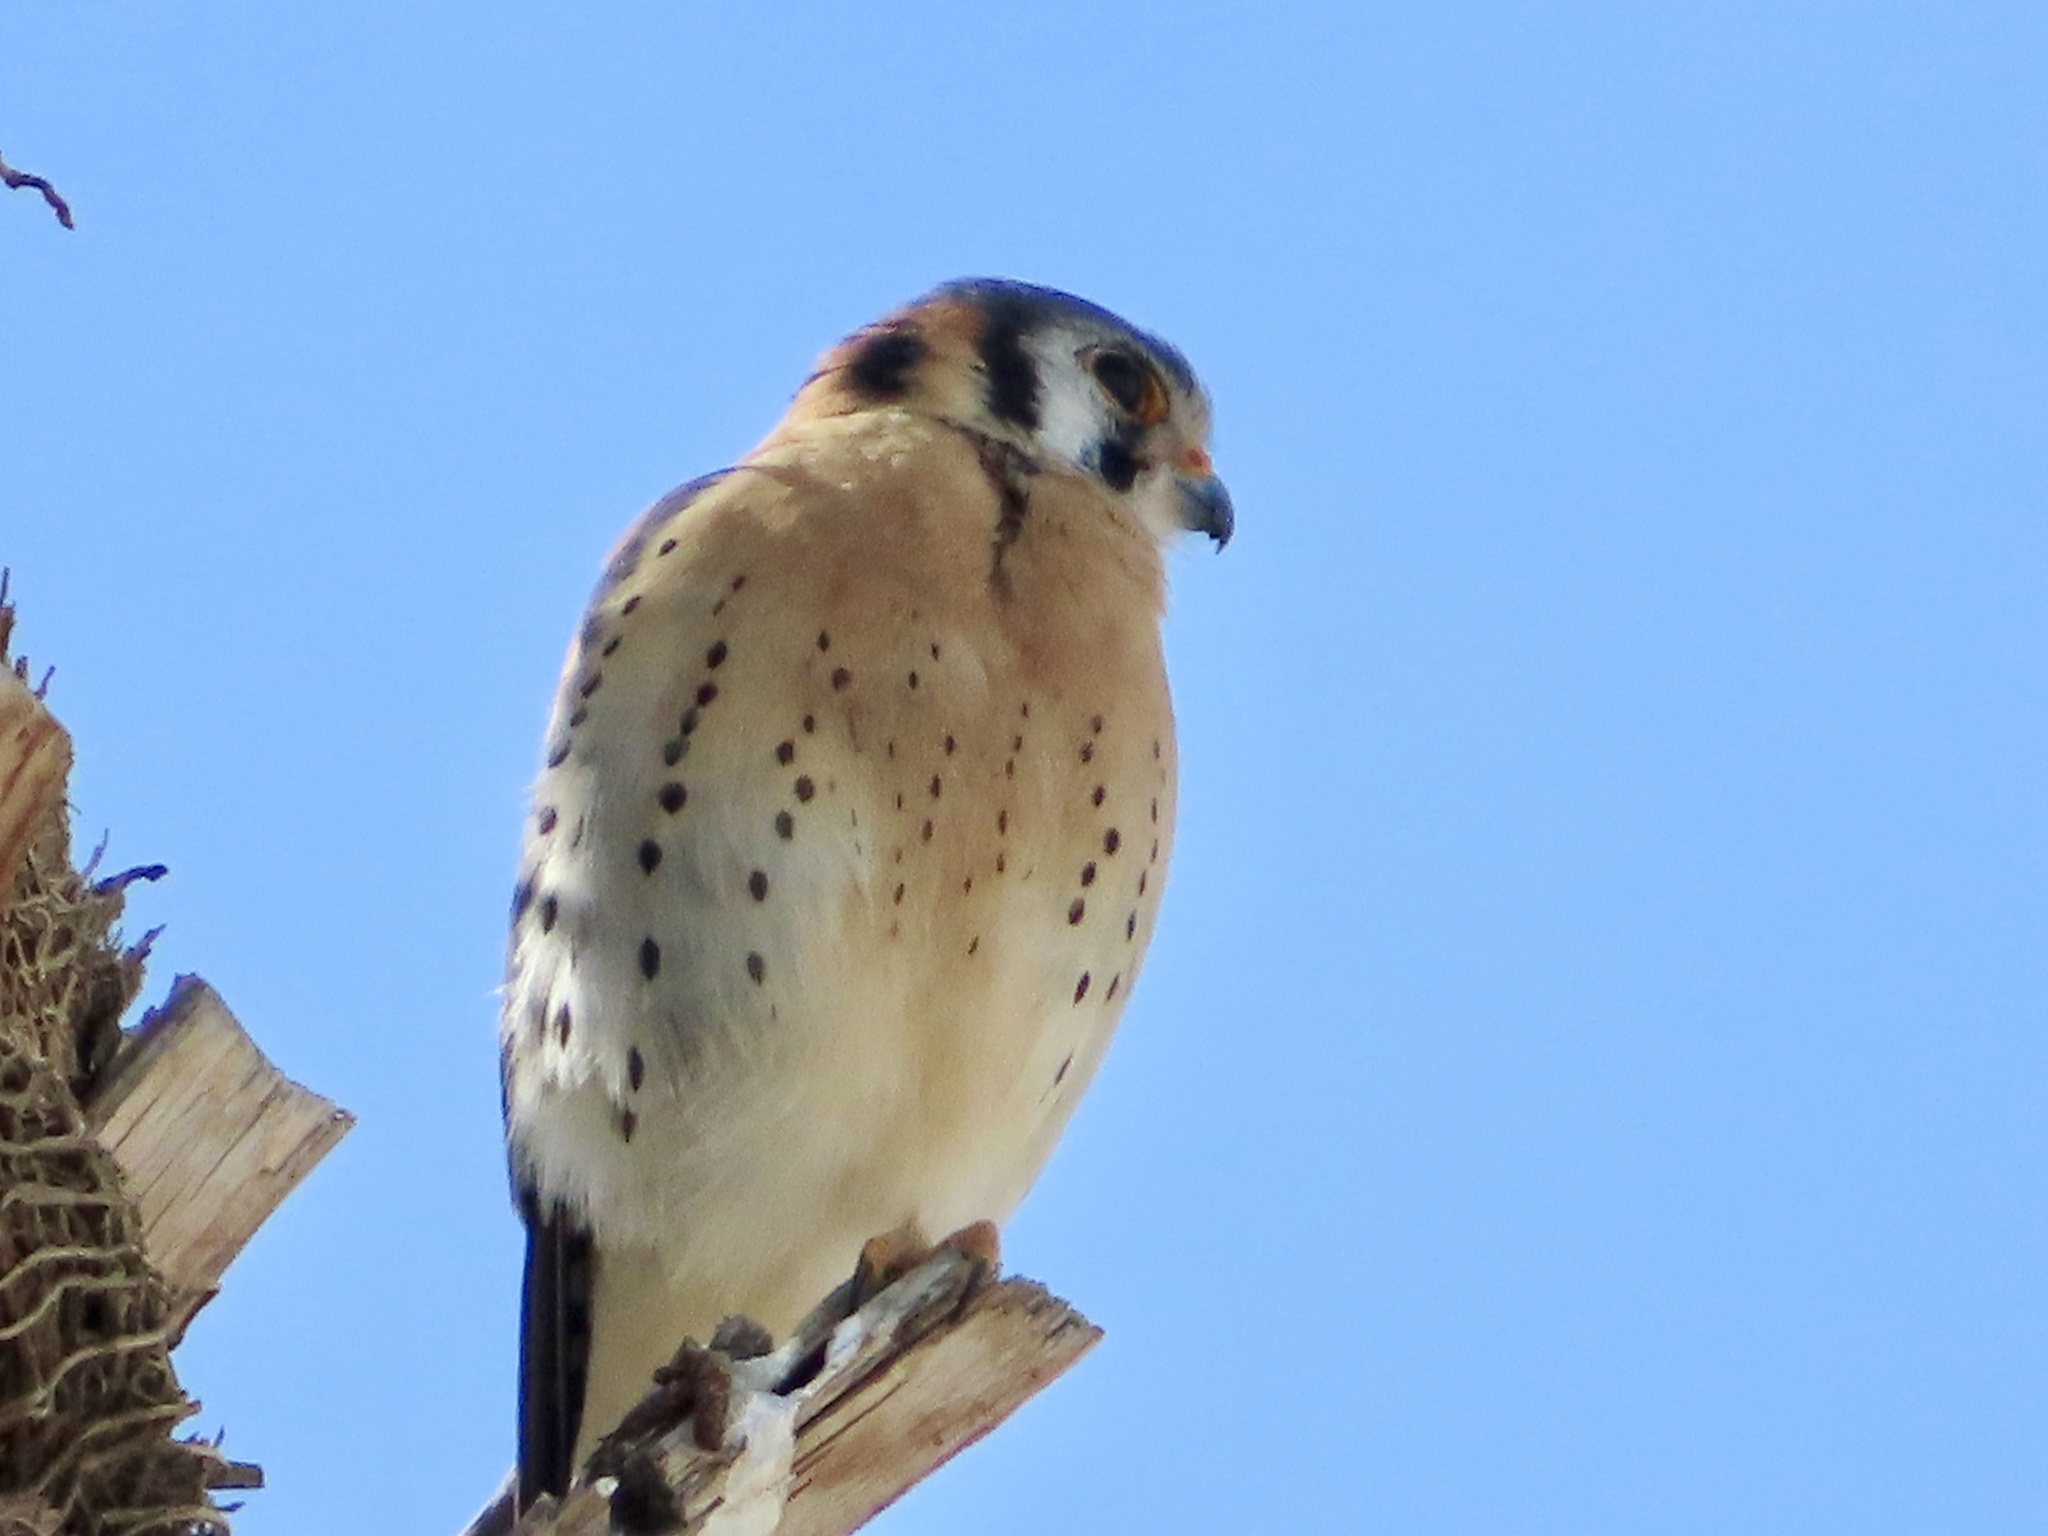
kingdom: Animalia
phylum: Chordata
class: Aves
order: Falconiformes
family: Falconidae
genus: Falco
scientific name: Falco sparverius
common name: American kestrel
